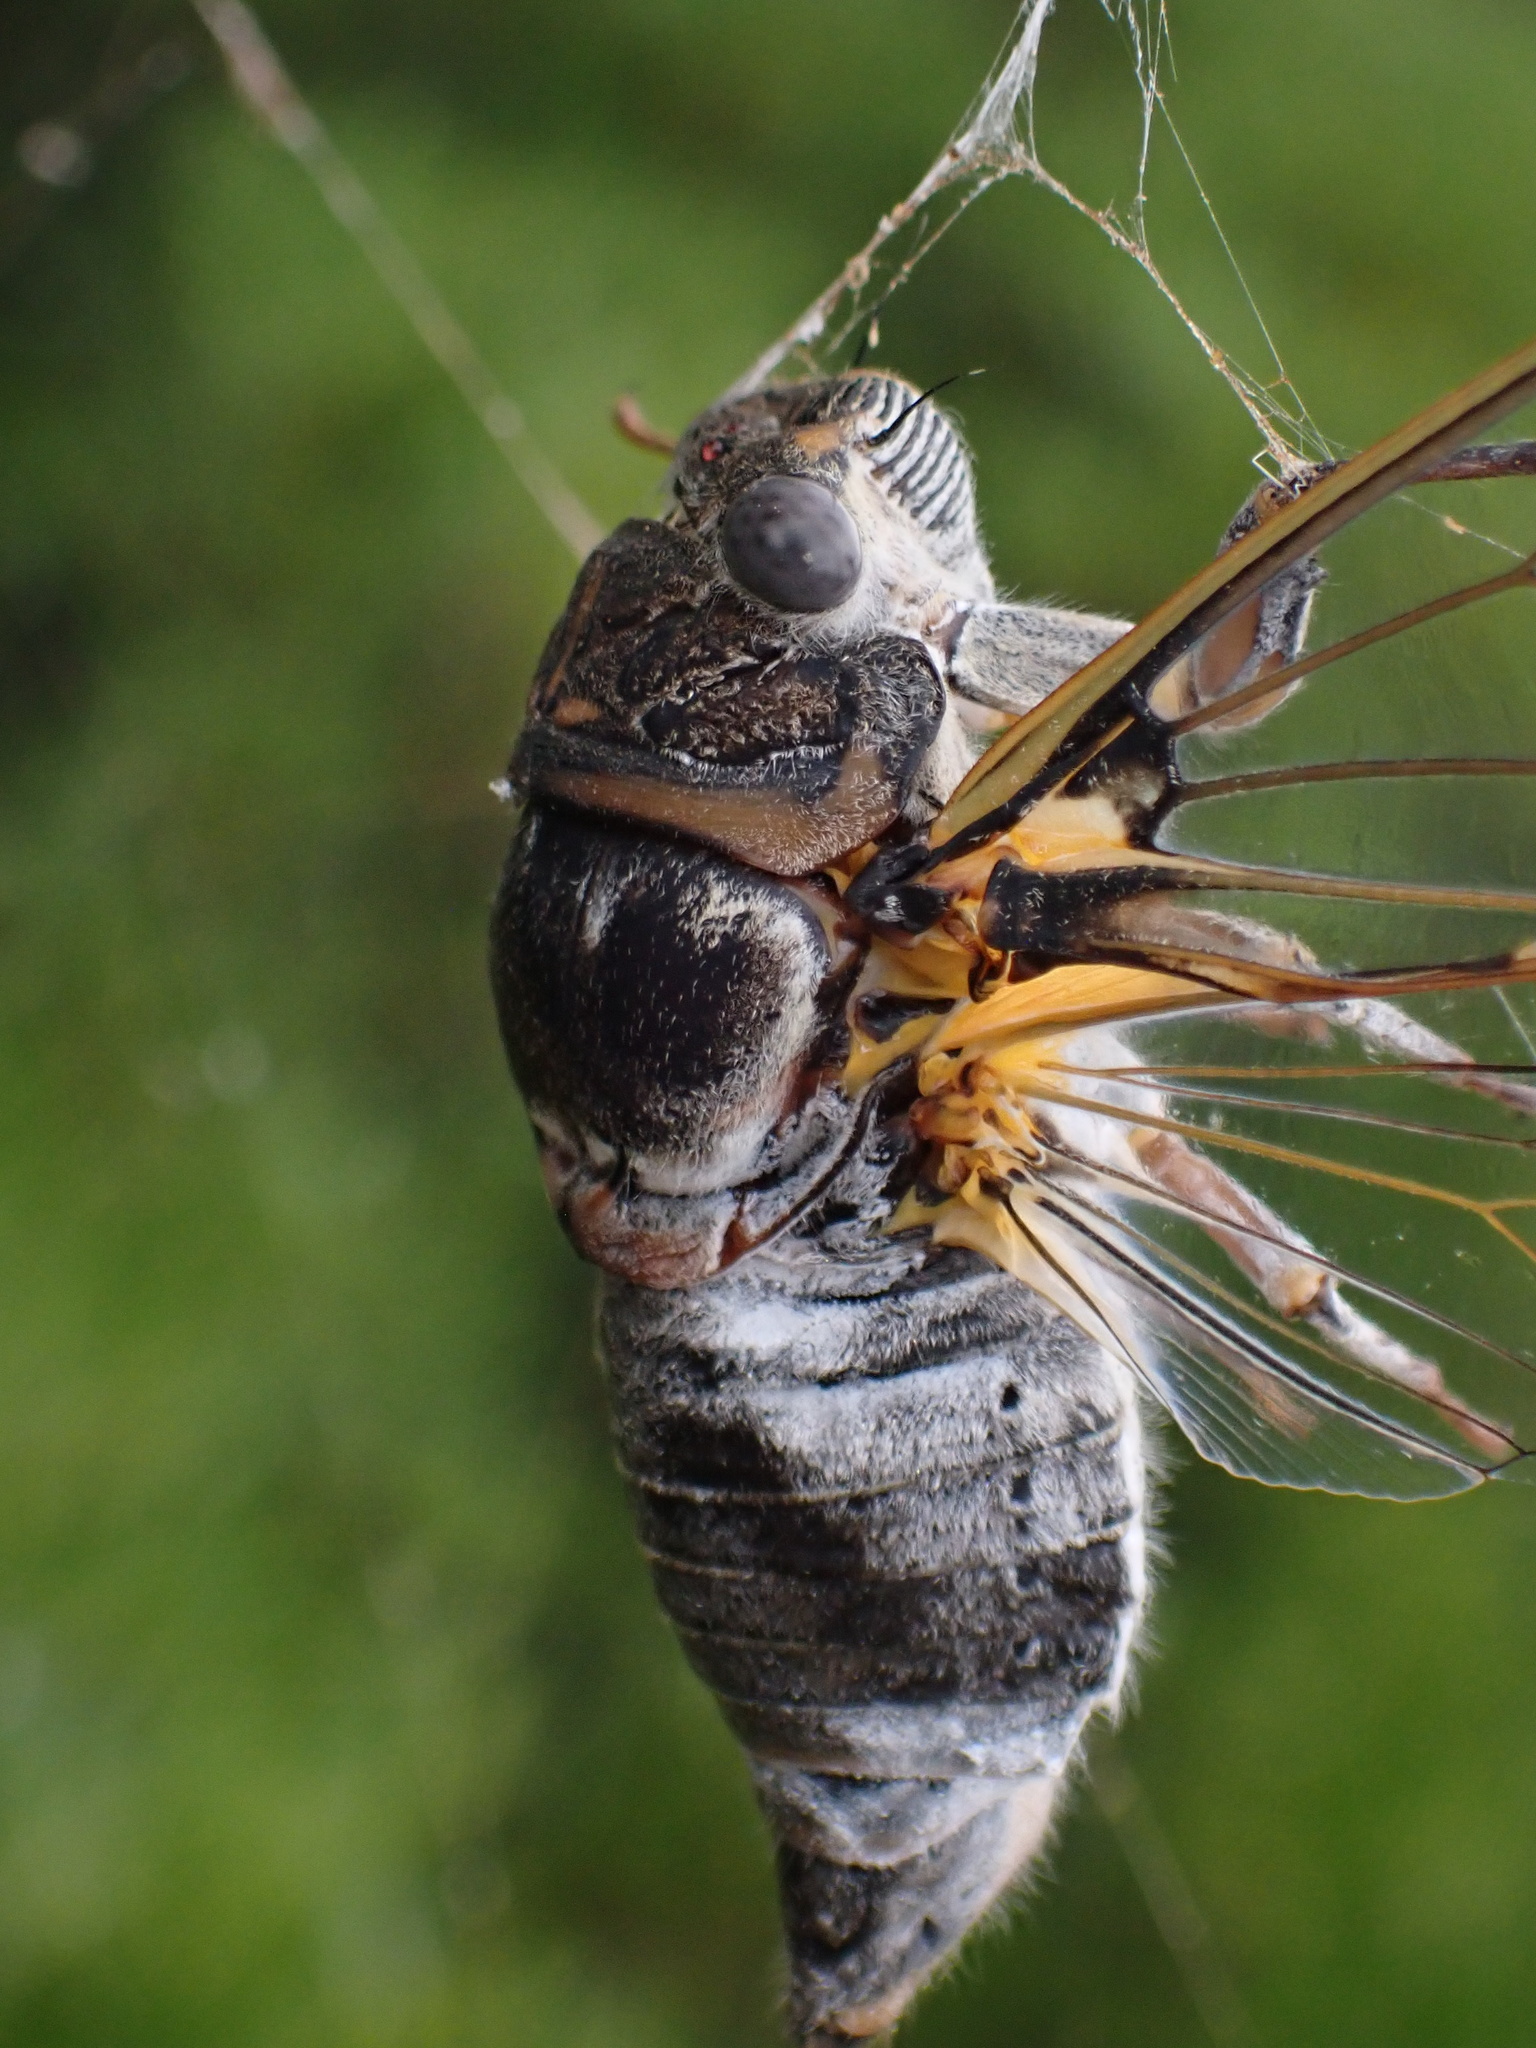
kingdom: Animalia
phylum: Arthropoda
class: Insecta
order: Hemiptera
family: Cicadidae
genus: Lyristes
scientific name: Lyristes plebejus
